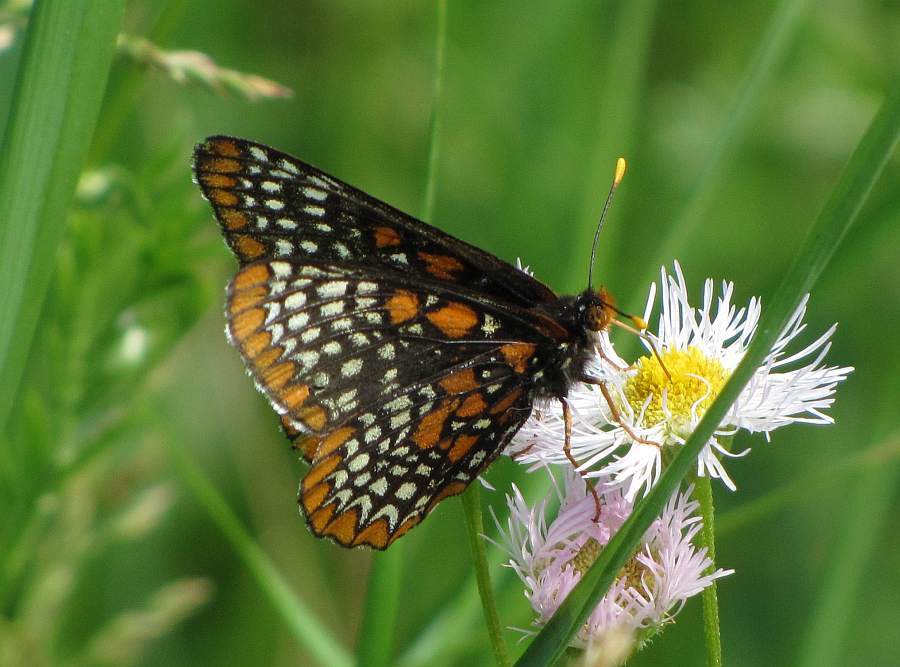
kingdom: Animalia
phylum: Arthropoda
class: Insecta
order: Lepidoptera
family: Nymphalidae
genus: Euphydryas
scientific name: Euphydryas phaeton
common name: Baltimore checkerspot
